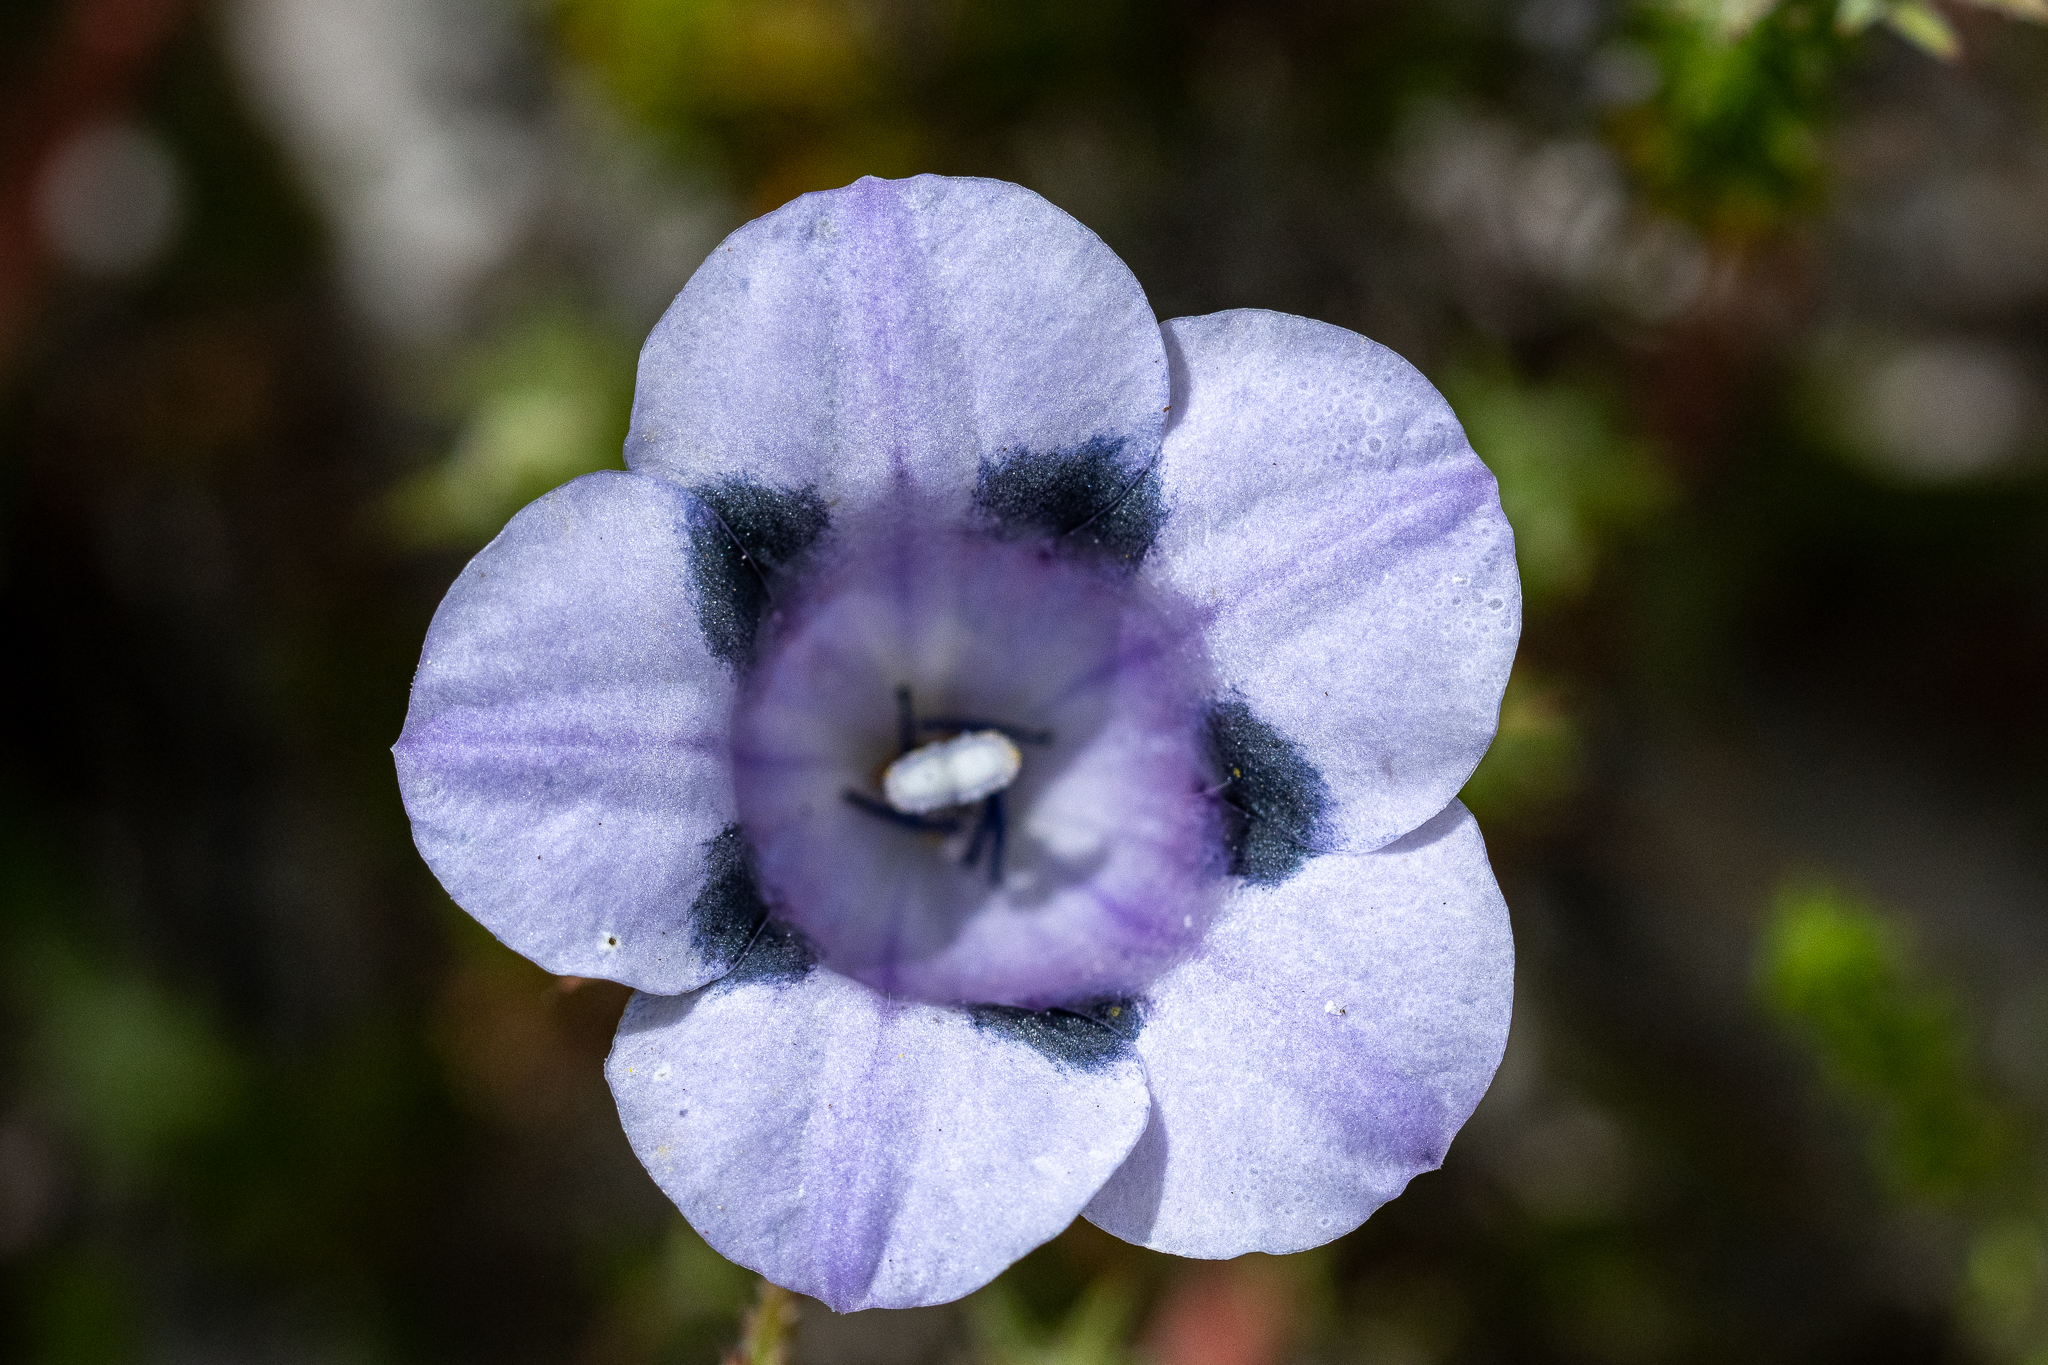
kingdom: Plantae
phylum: Tracheophyta
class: Magnoliopsida
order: Asterales
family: Campanulaceae
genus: Roella
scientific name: Roella maculata
